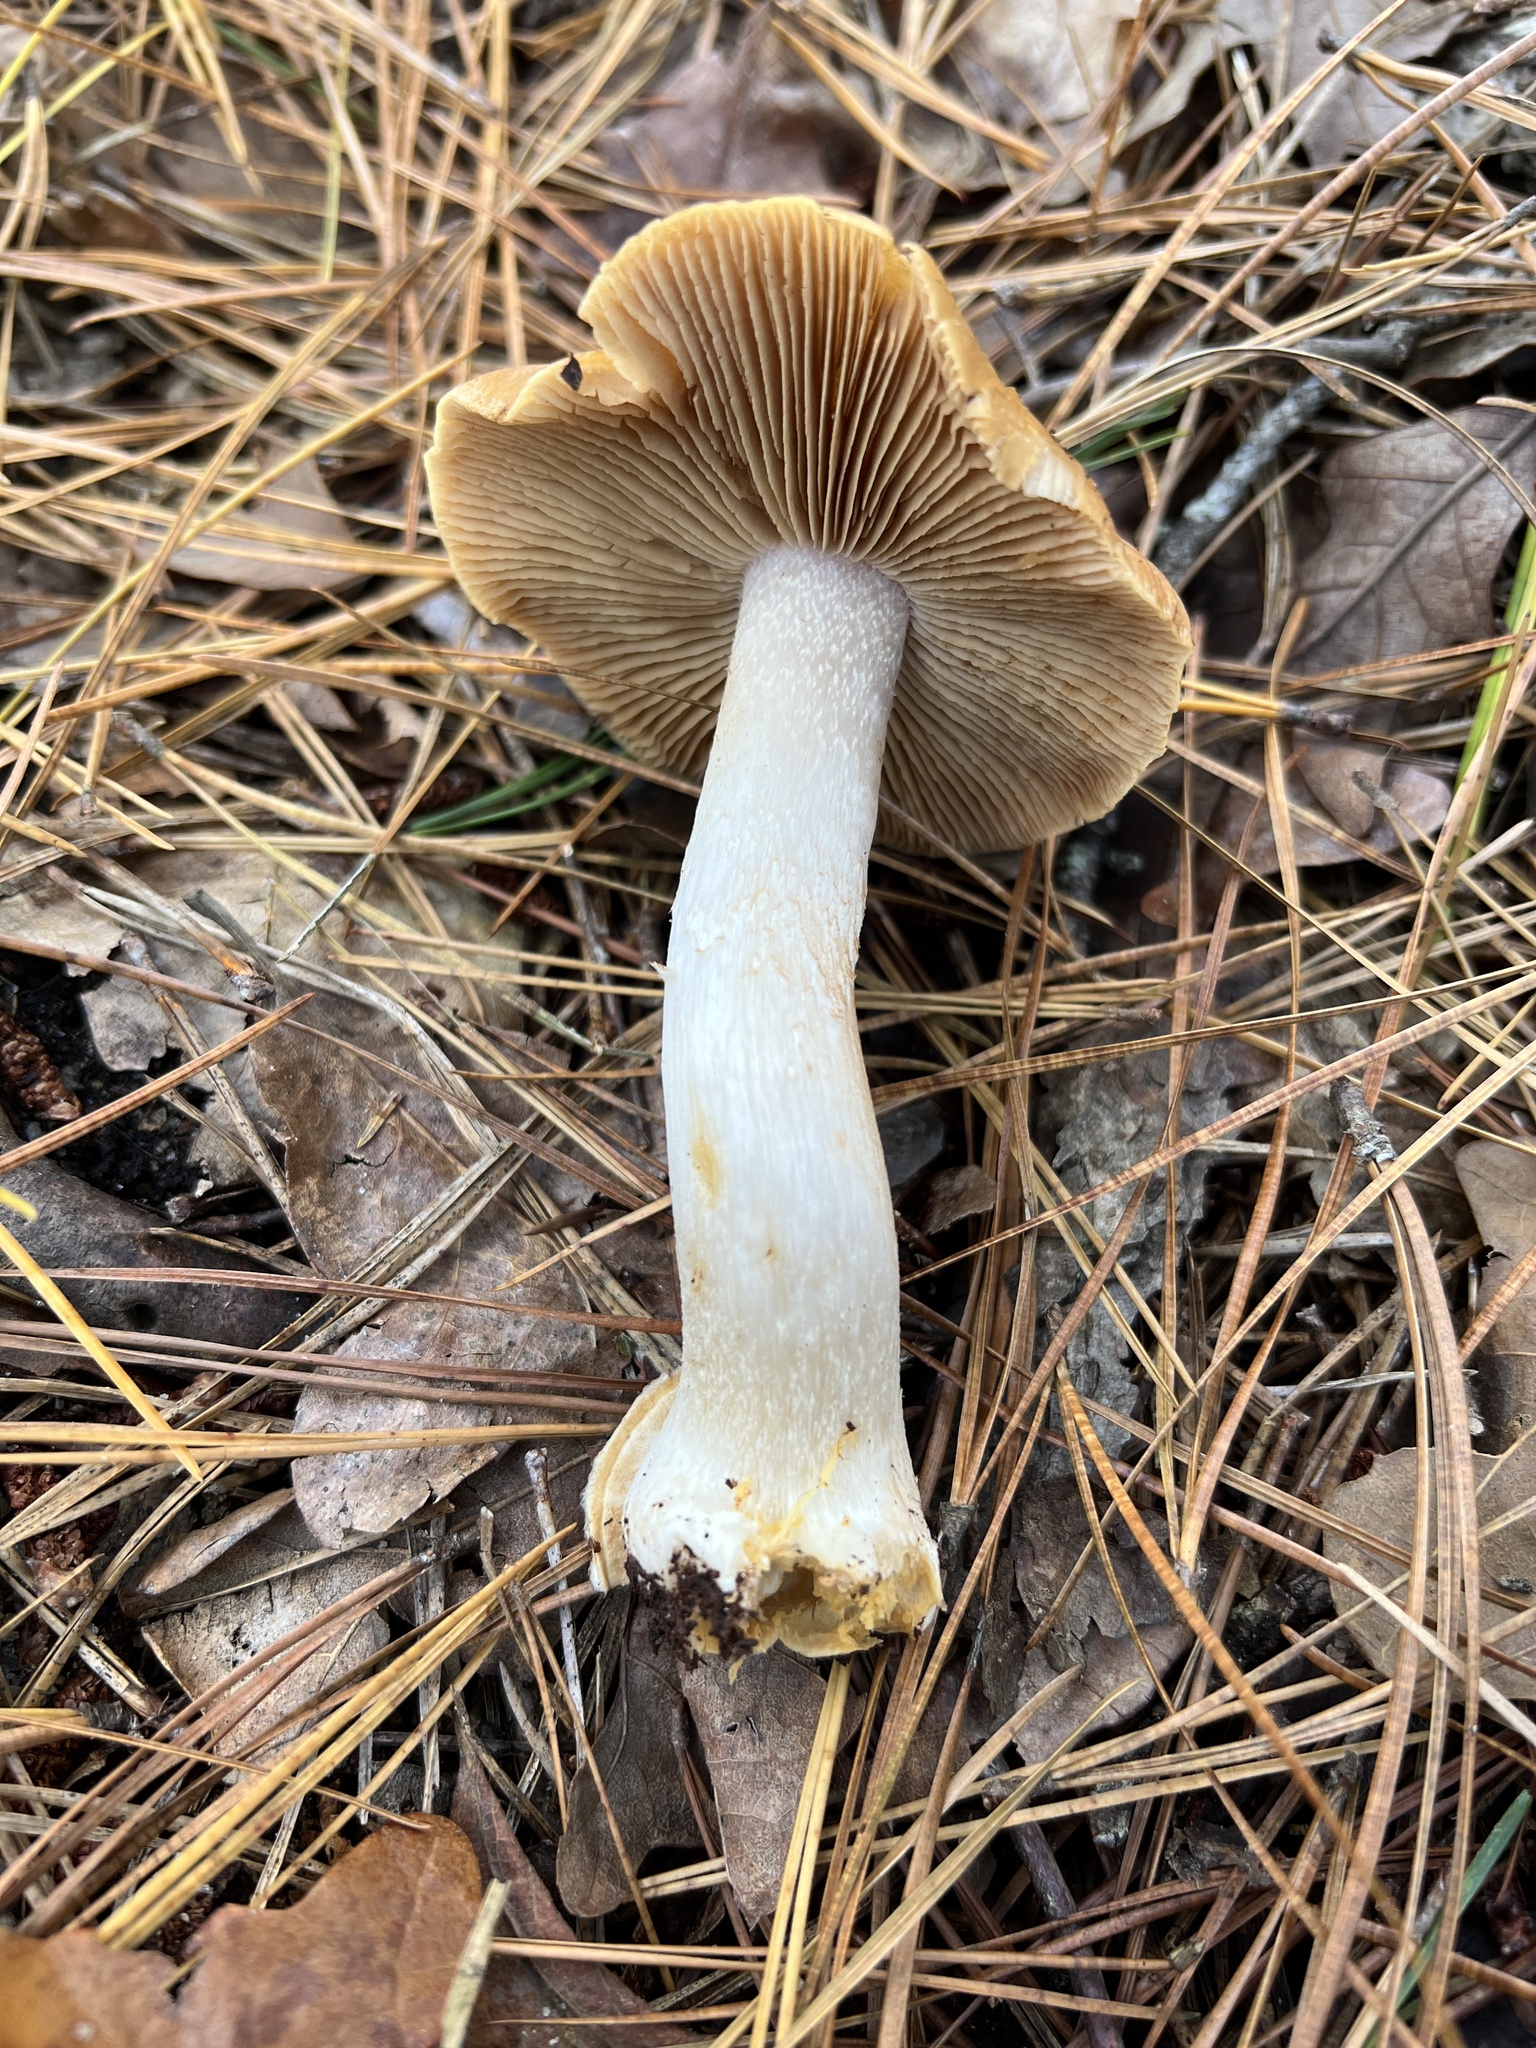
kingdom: Fungi
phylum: Basidiomycota
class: Agaricomycetes
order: Agaricales
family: Cortinariaceae
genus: Cortinarius
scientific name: Cortinarius caperatus
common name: The gypsy
